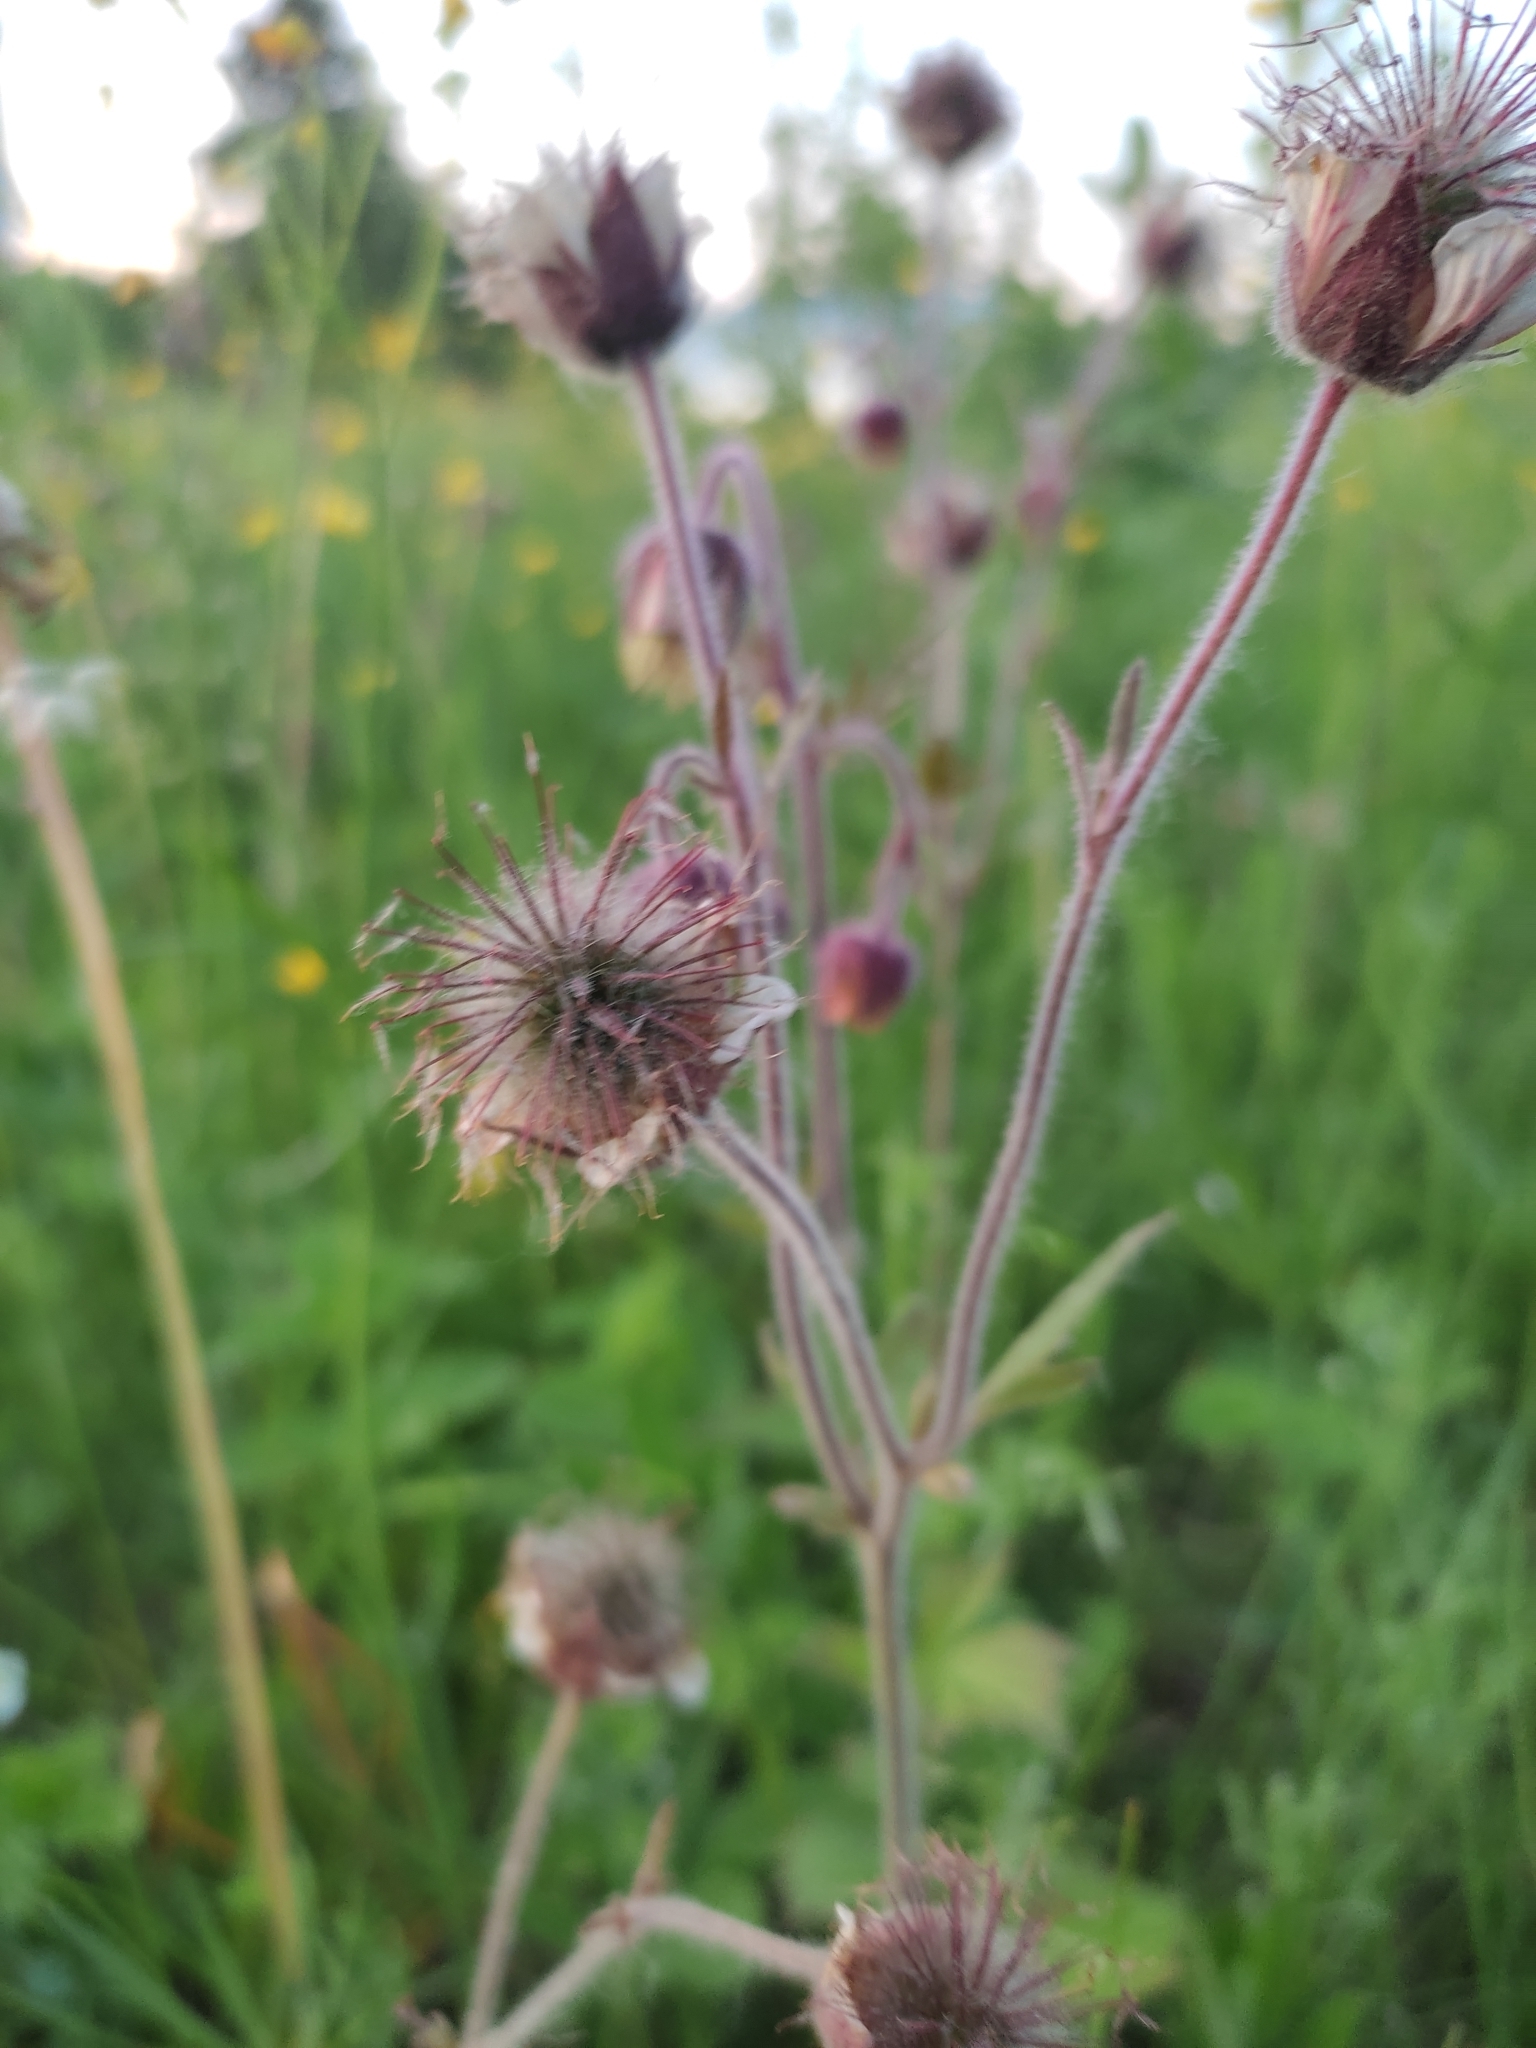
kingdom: Plantae
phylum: Tracheophyta
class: Magnoliopsida
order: Rosales
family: Rosaceae
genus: Geum
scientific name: Geum rivale
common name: Water avens
